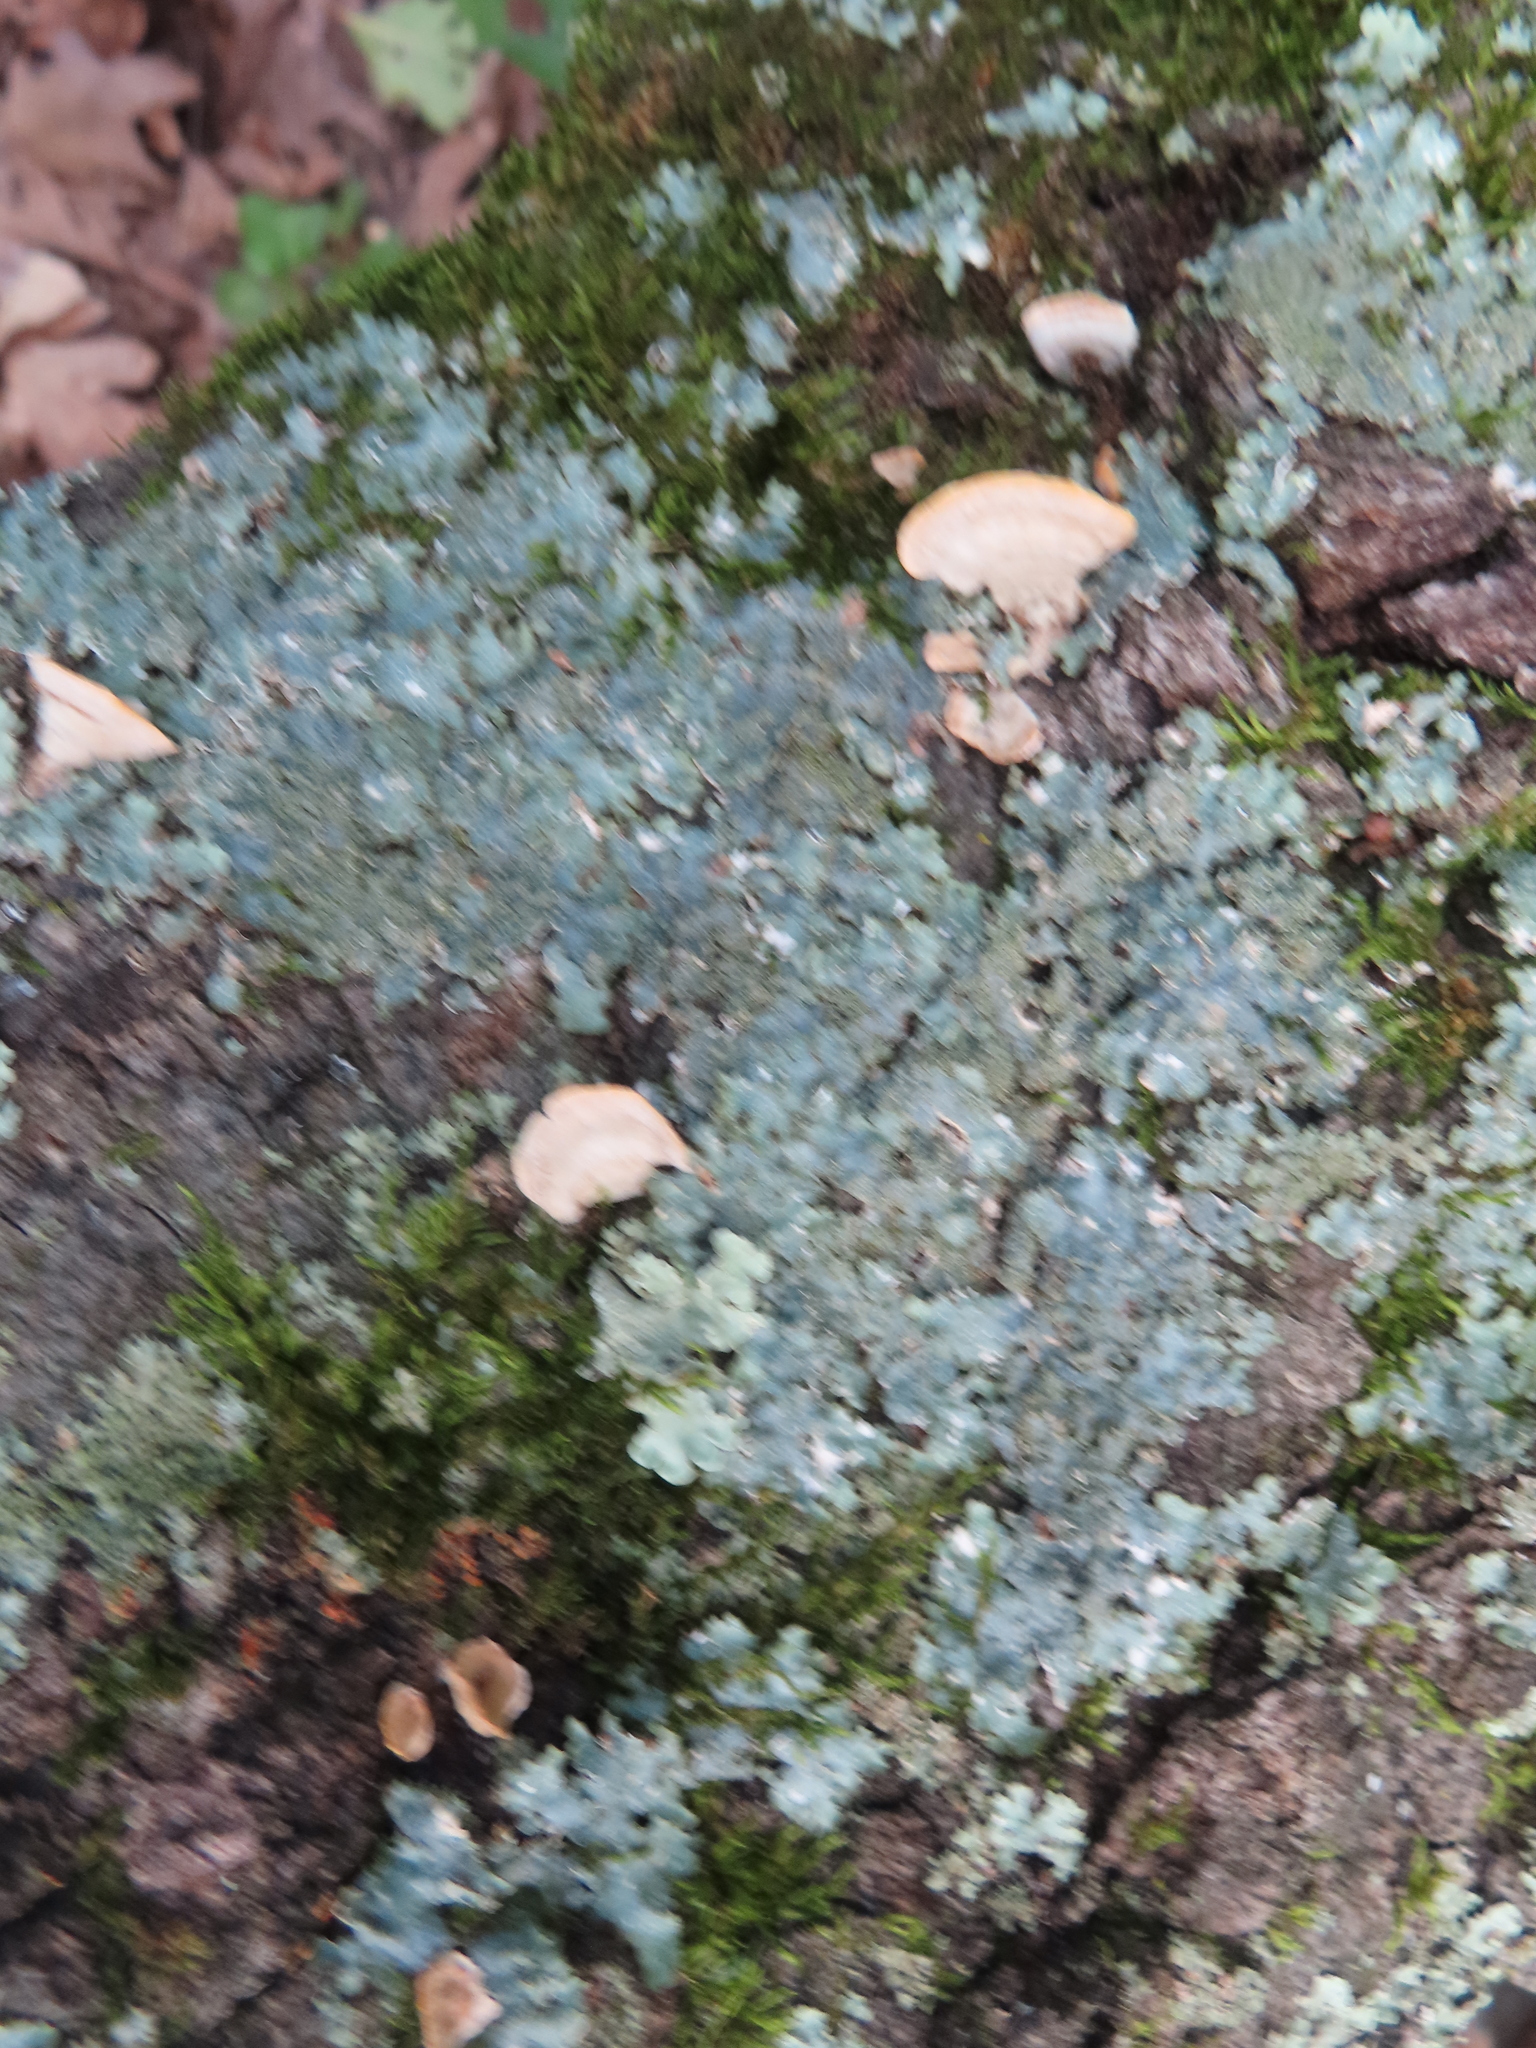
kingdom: Fungi
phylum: Ascomycota
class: Lecanoromycetes
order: Lecanorales
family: Parmeliaceae
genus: Punctelia
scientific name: Punctelia rudecta
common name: Rough speckled shield lichen
